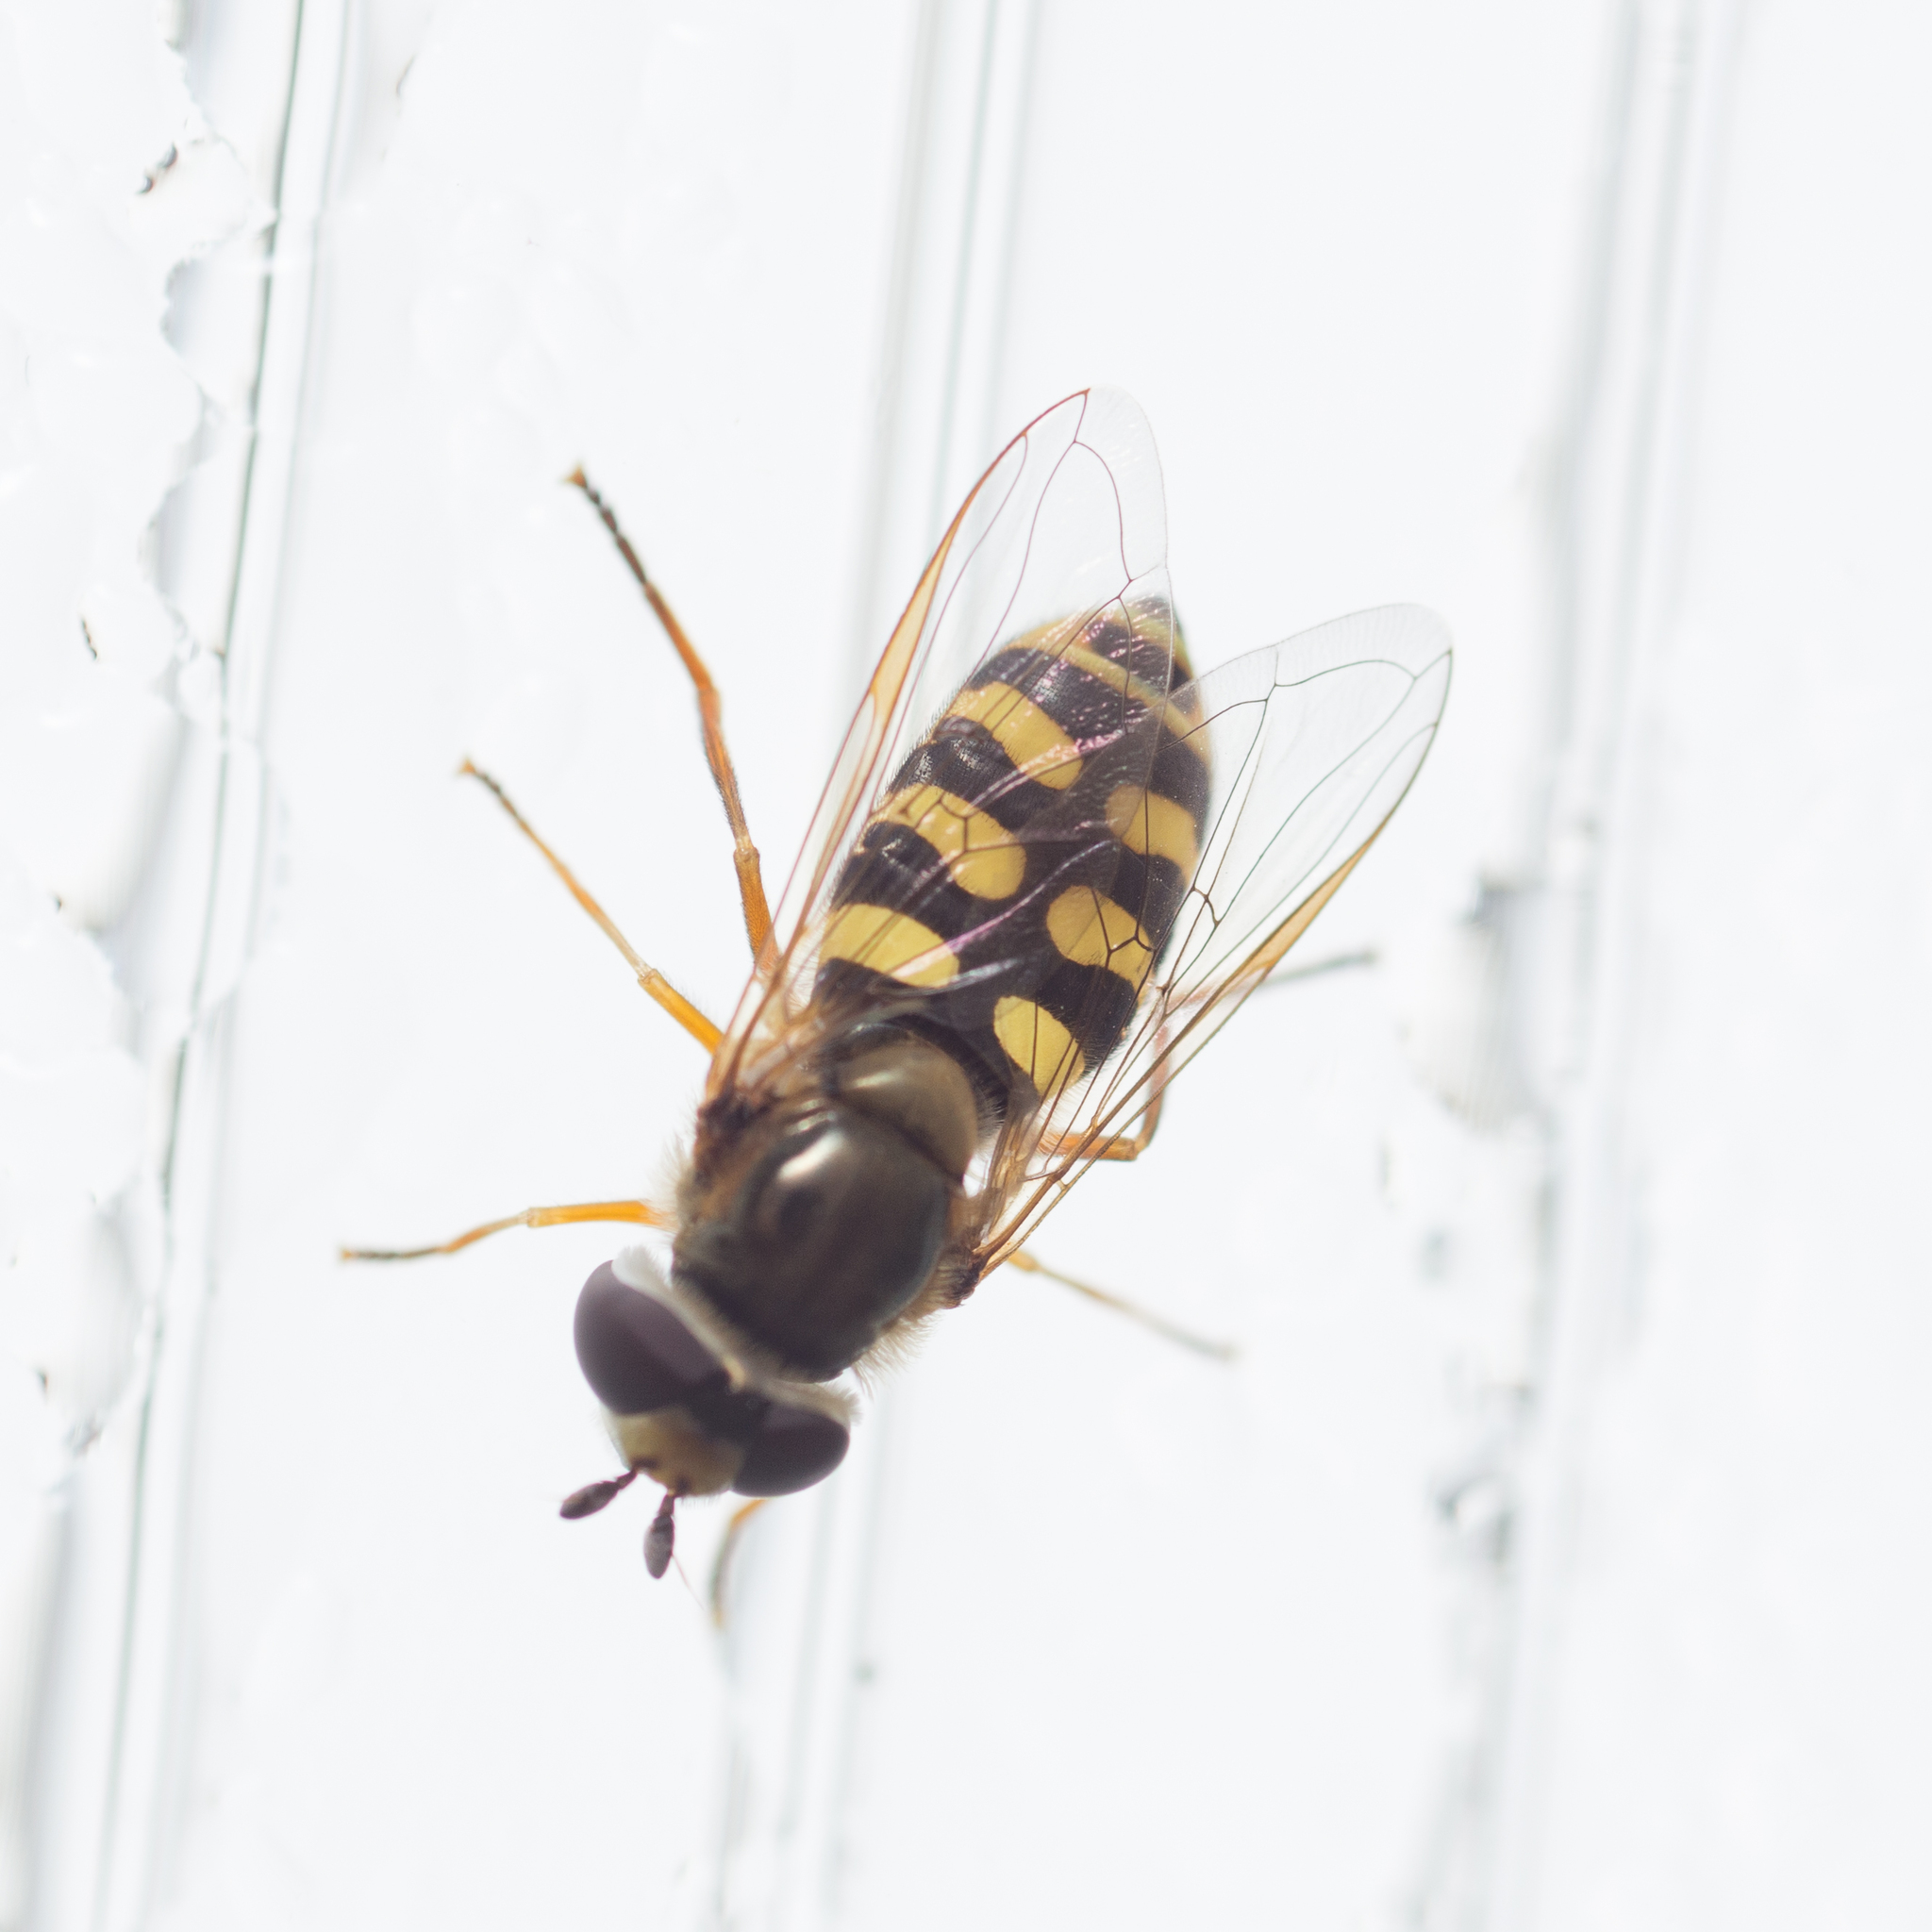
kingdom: Animalia
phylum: Arthropoda
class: Insecta
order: Diptera
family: Syrphidae
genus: Eupeodes
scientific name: Eupeodes corollae
